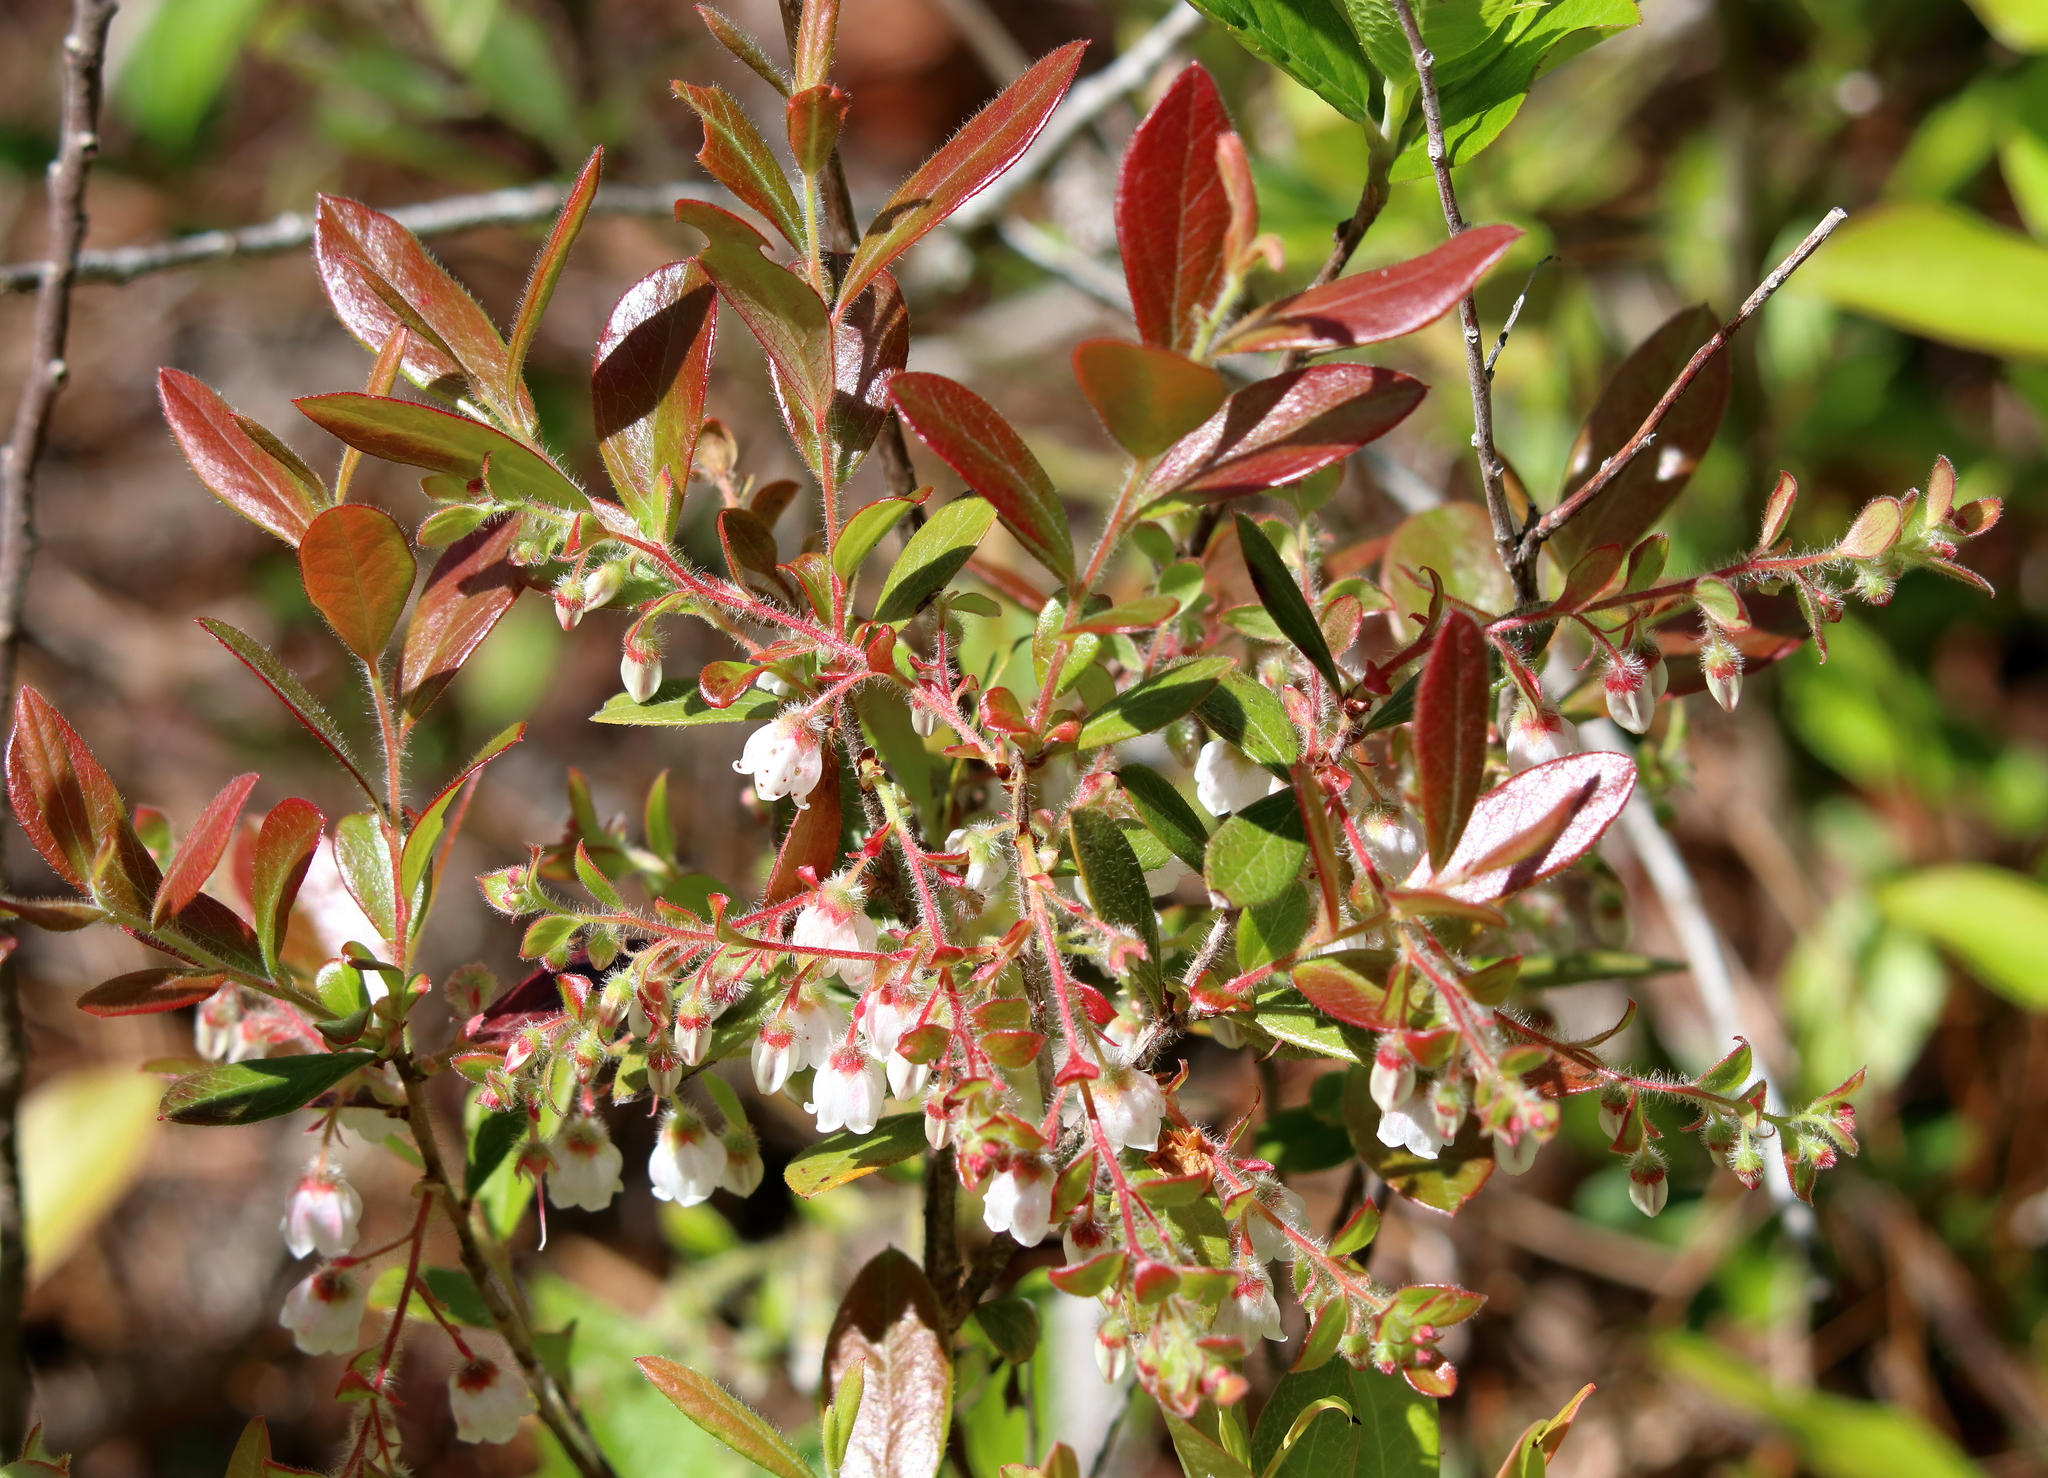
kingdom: Plantae
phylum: Tracheophyta
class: Magnoliopsida
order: Ericales
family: Ericaceae
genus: Gaylussacia
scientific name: Gaylussacia mosieri
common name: Hirsute huckleberry
